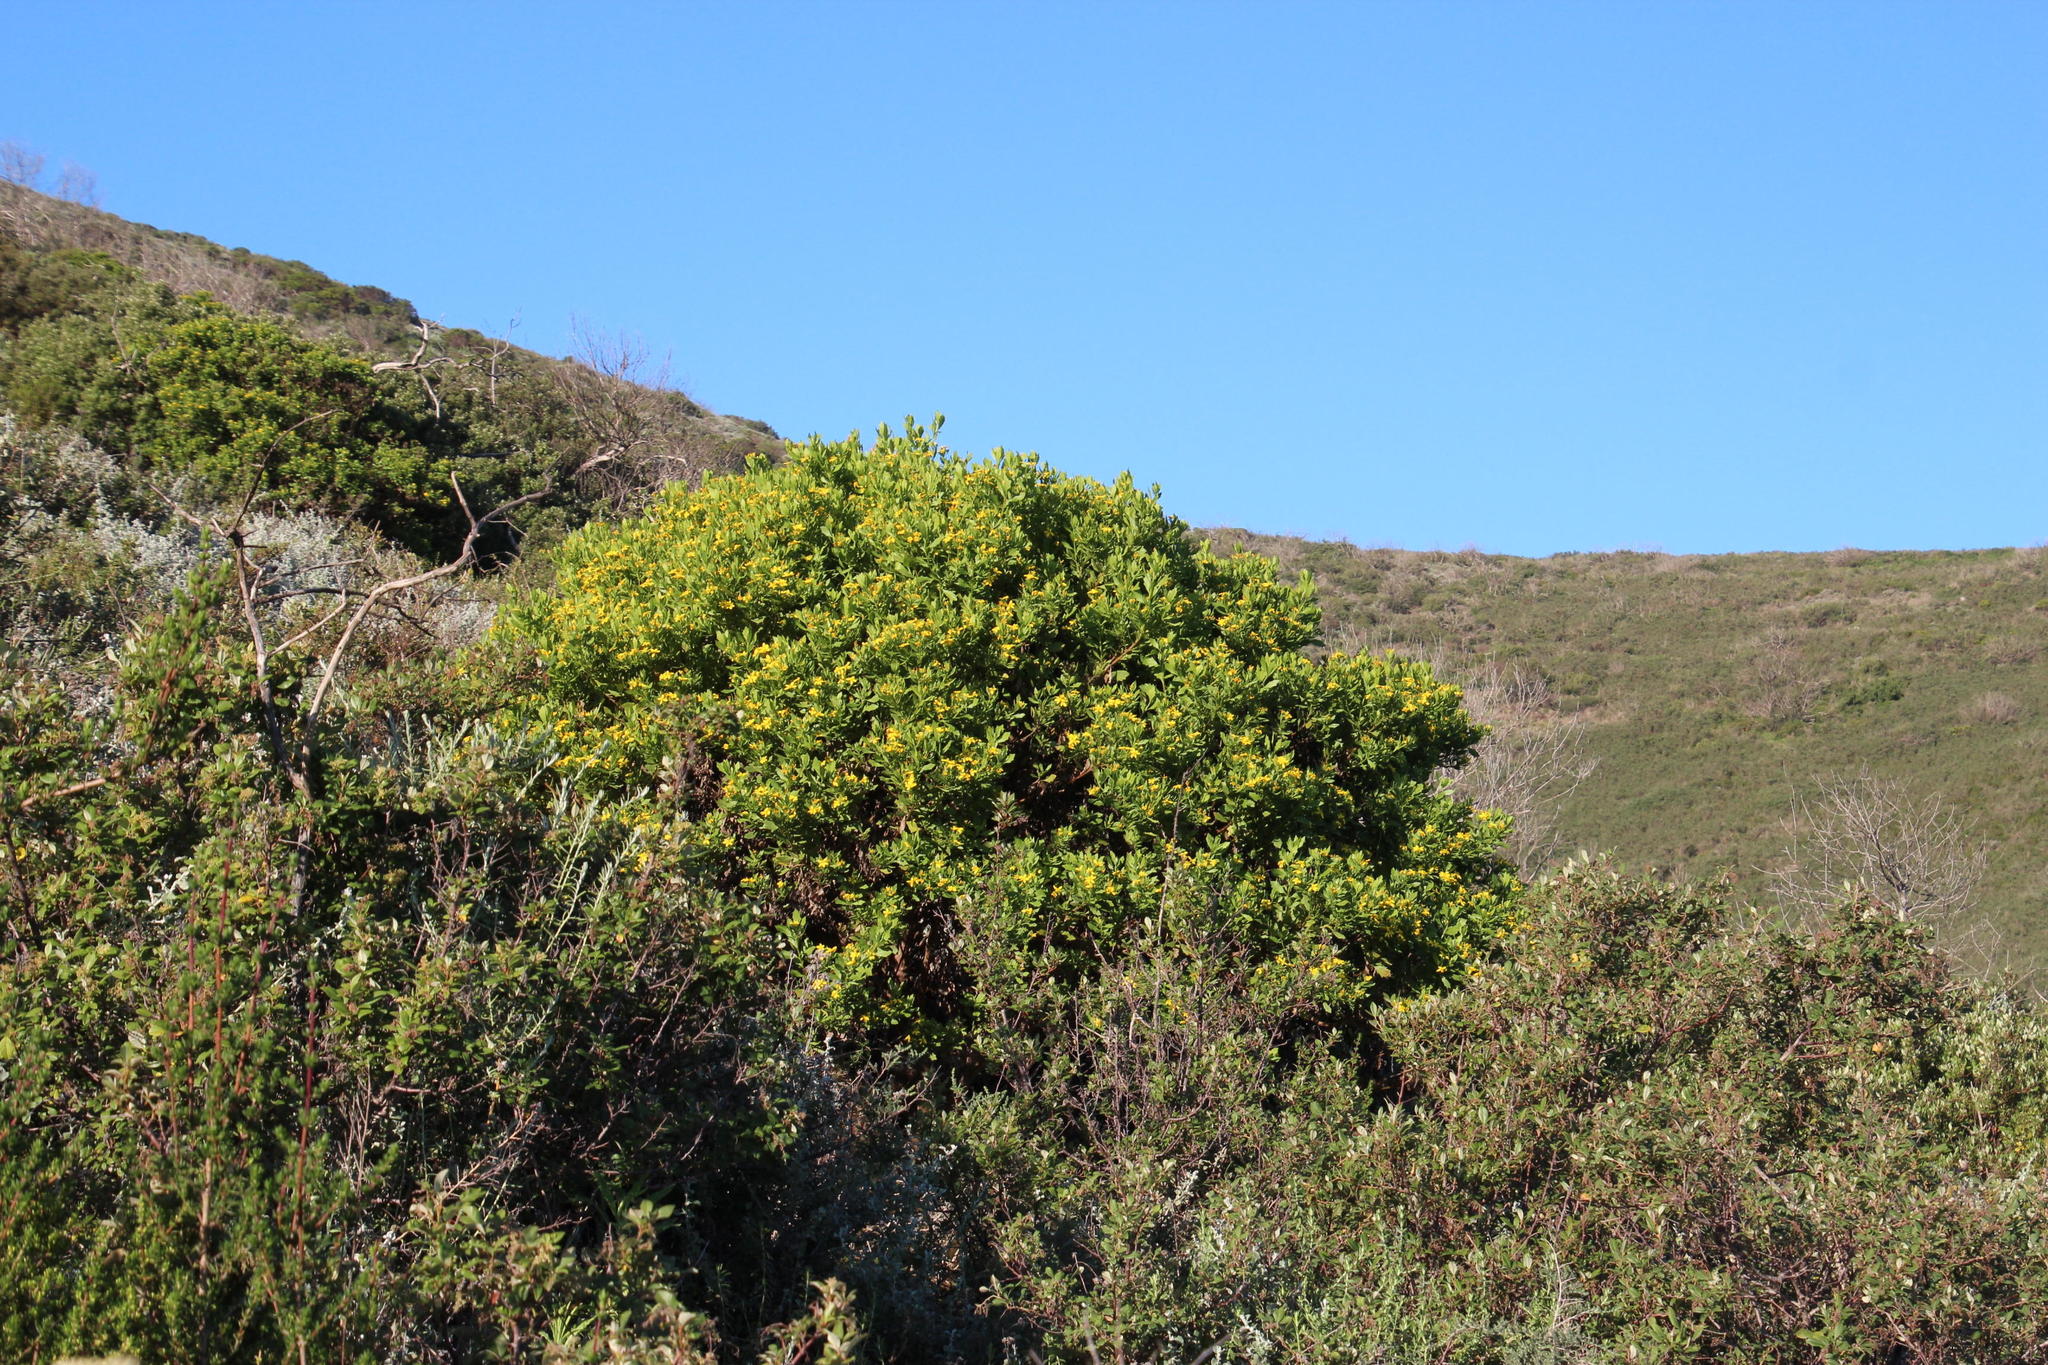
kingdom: Plantae
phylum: Tracheophyta
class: Magnoliopsida
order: Asterales
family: Asteraceae
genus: Osteospermum
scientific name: Osteospermum moniliferum
